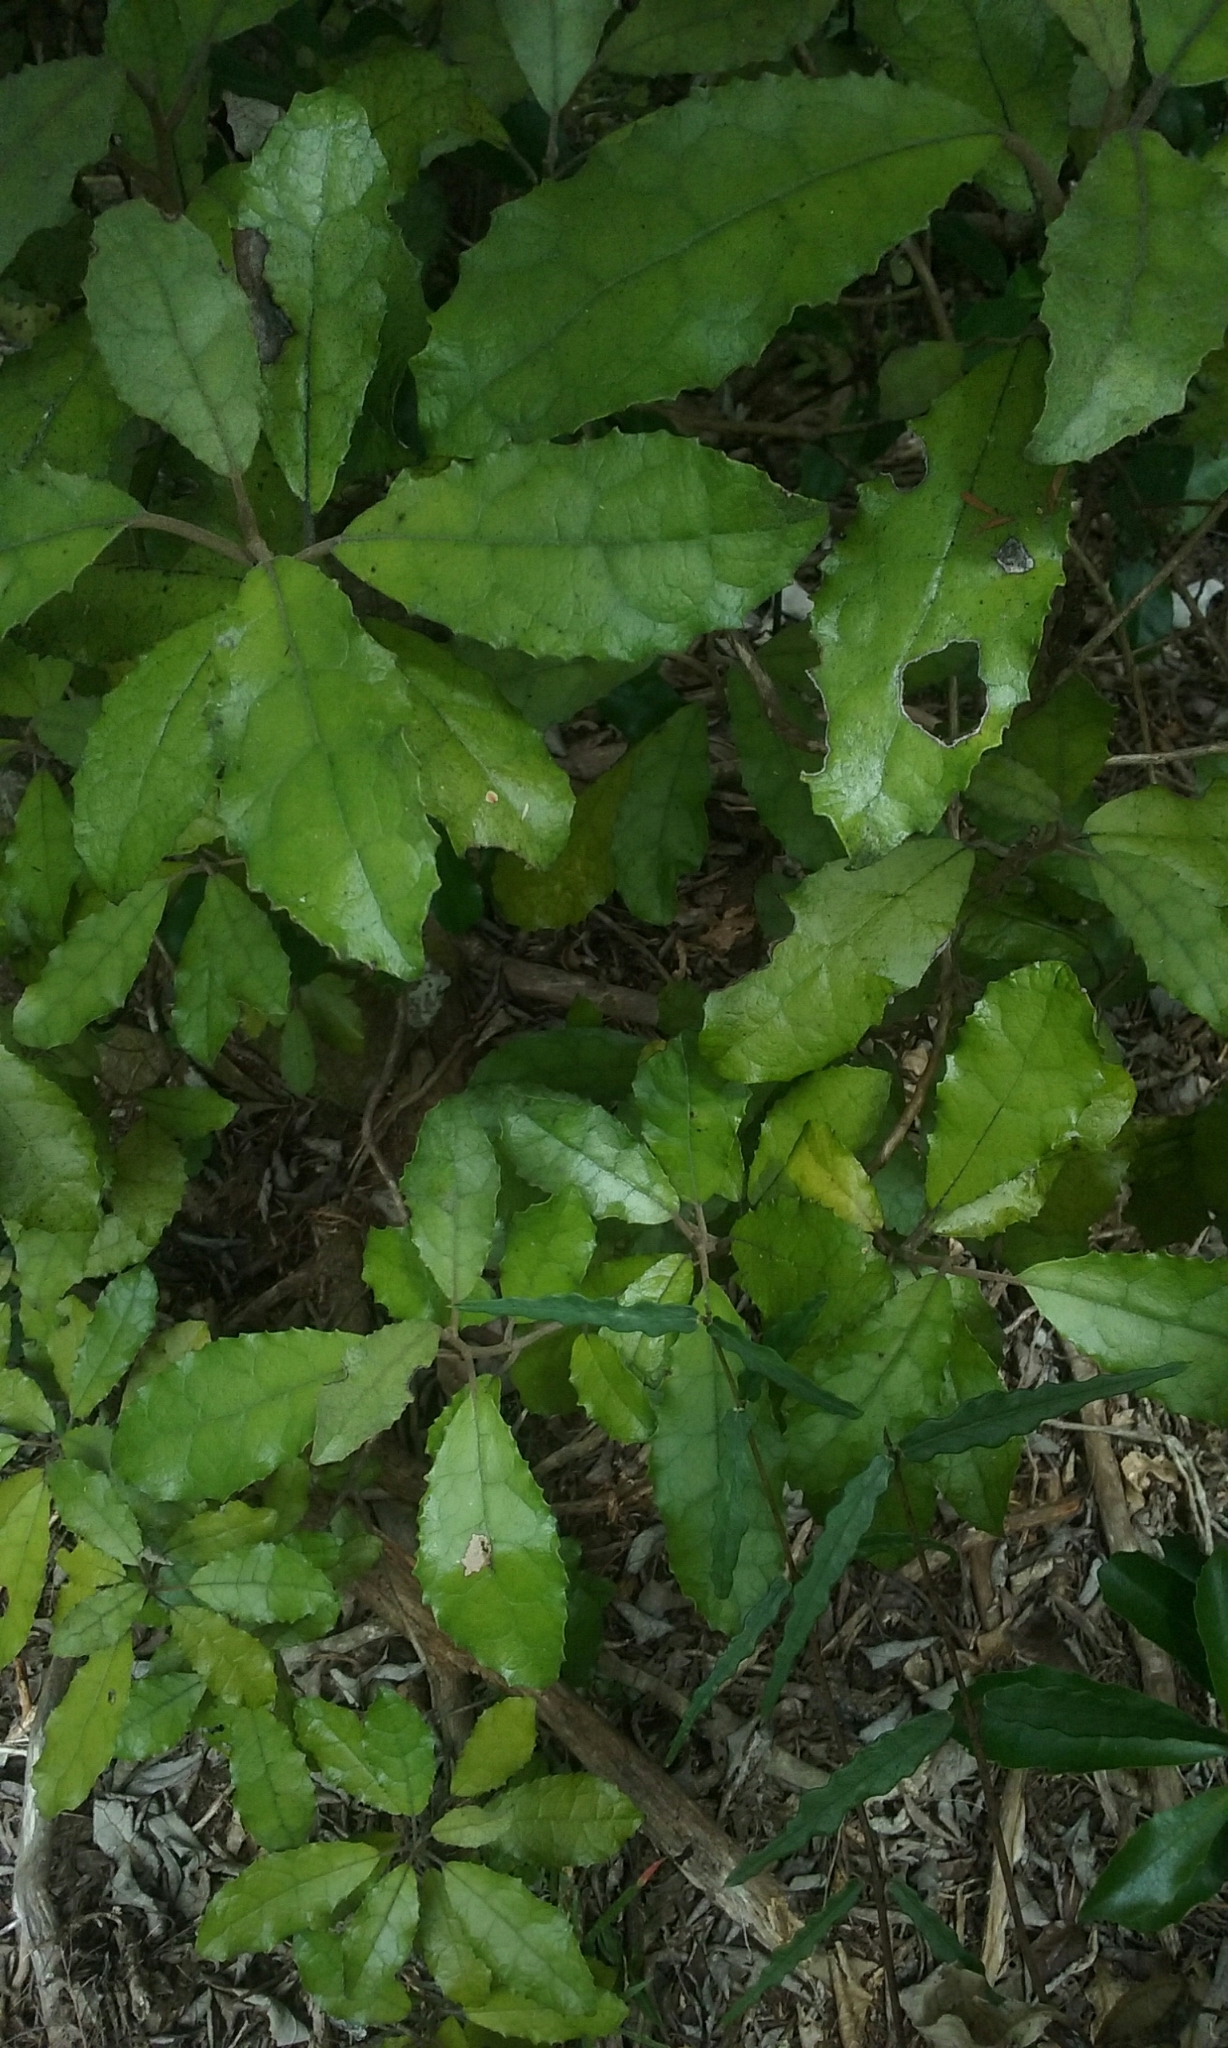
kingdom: Plantae
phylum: Tracheophyta
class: Magnoliopsida
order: Asterales
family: Asteraceae
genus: Olearia
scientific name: Olearia rani
